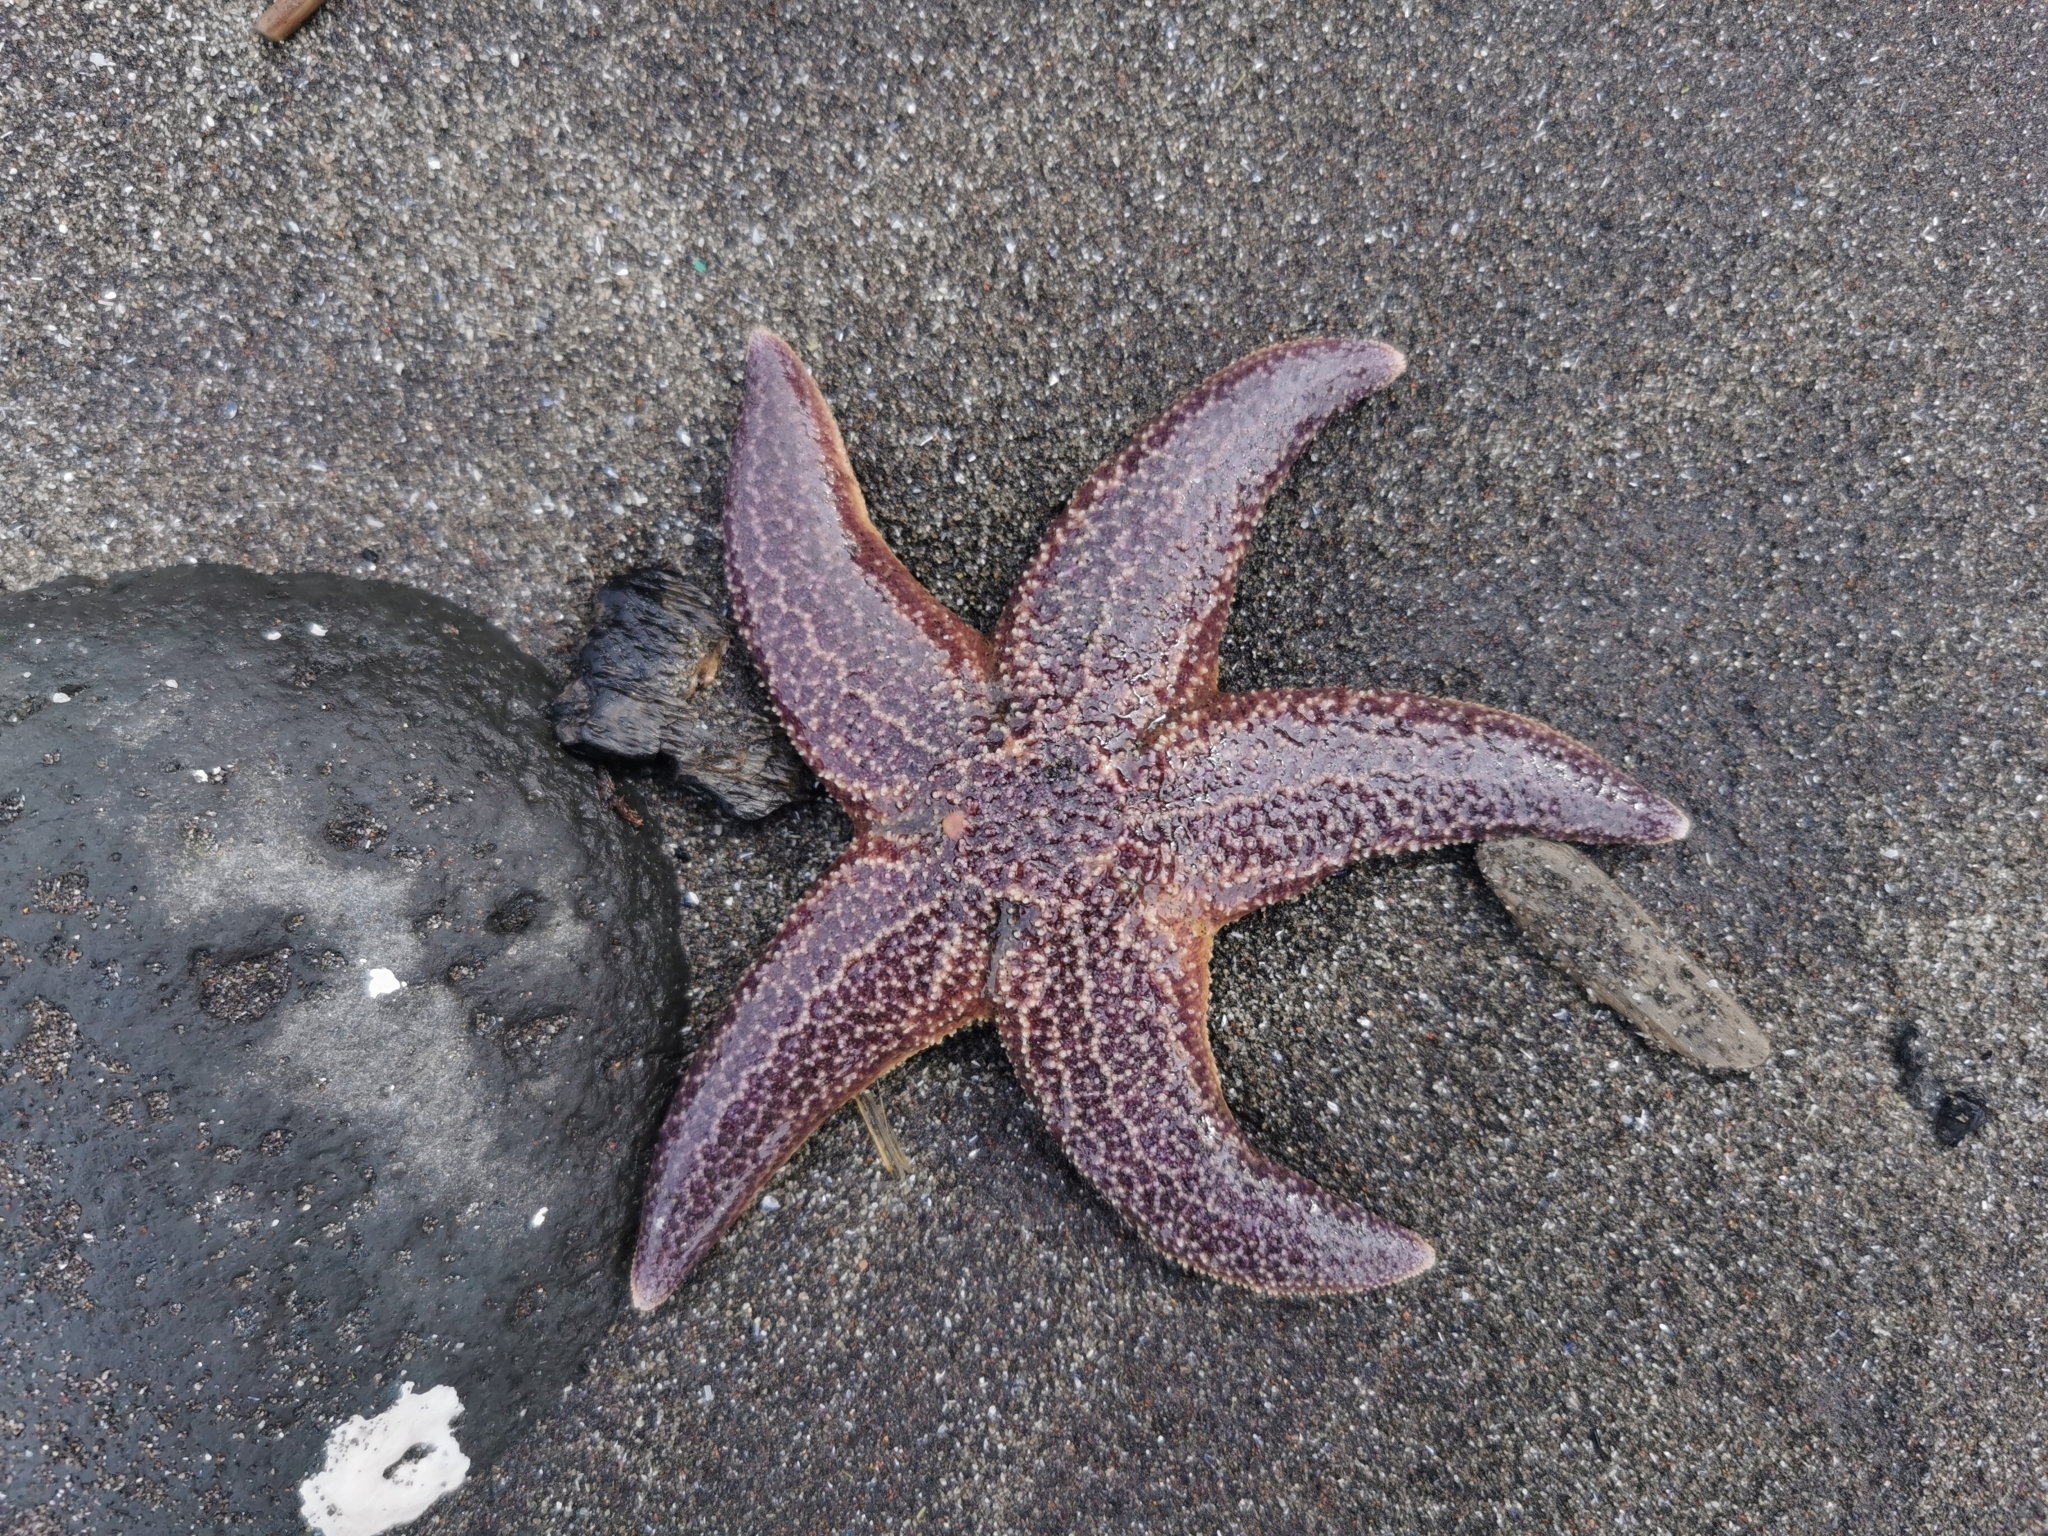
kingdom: Animalia
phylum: Echinodermata
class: Asteroidea
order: Forcipulatida
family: Asteriidae
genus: Asterias
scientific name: Asterias amurensis
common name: Flat-bottomed star
